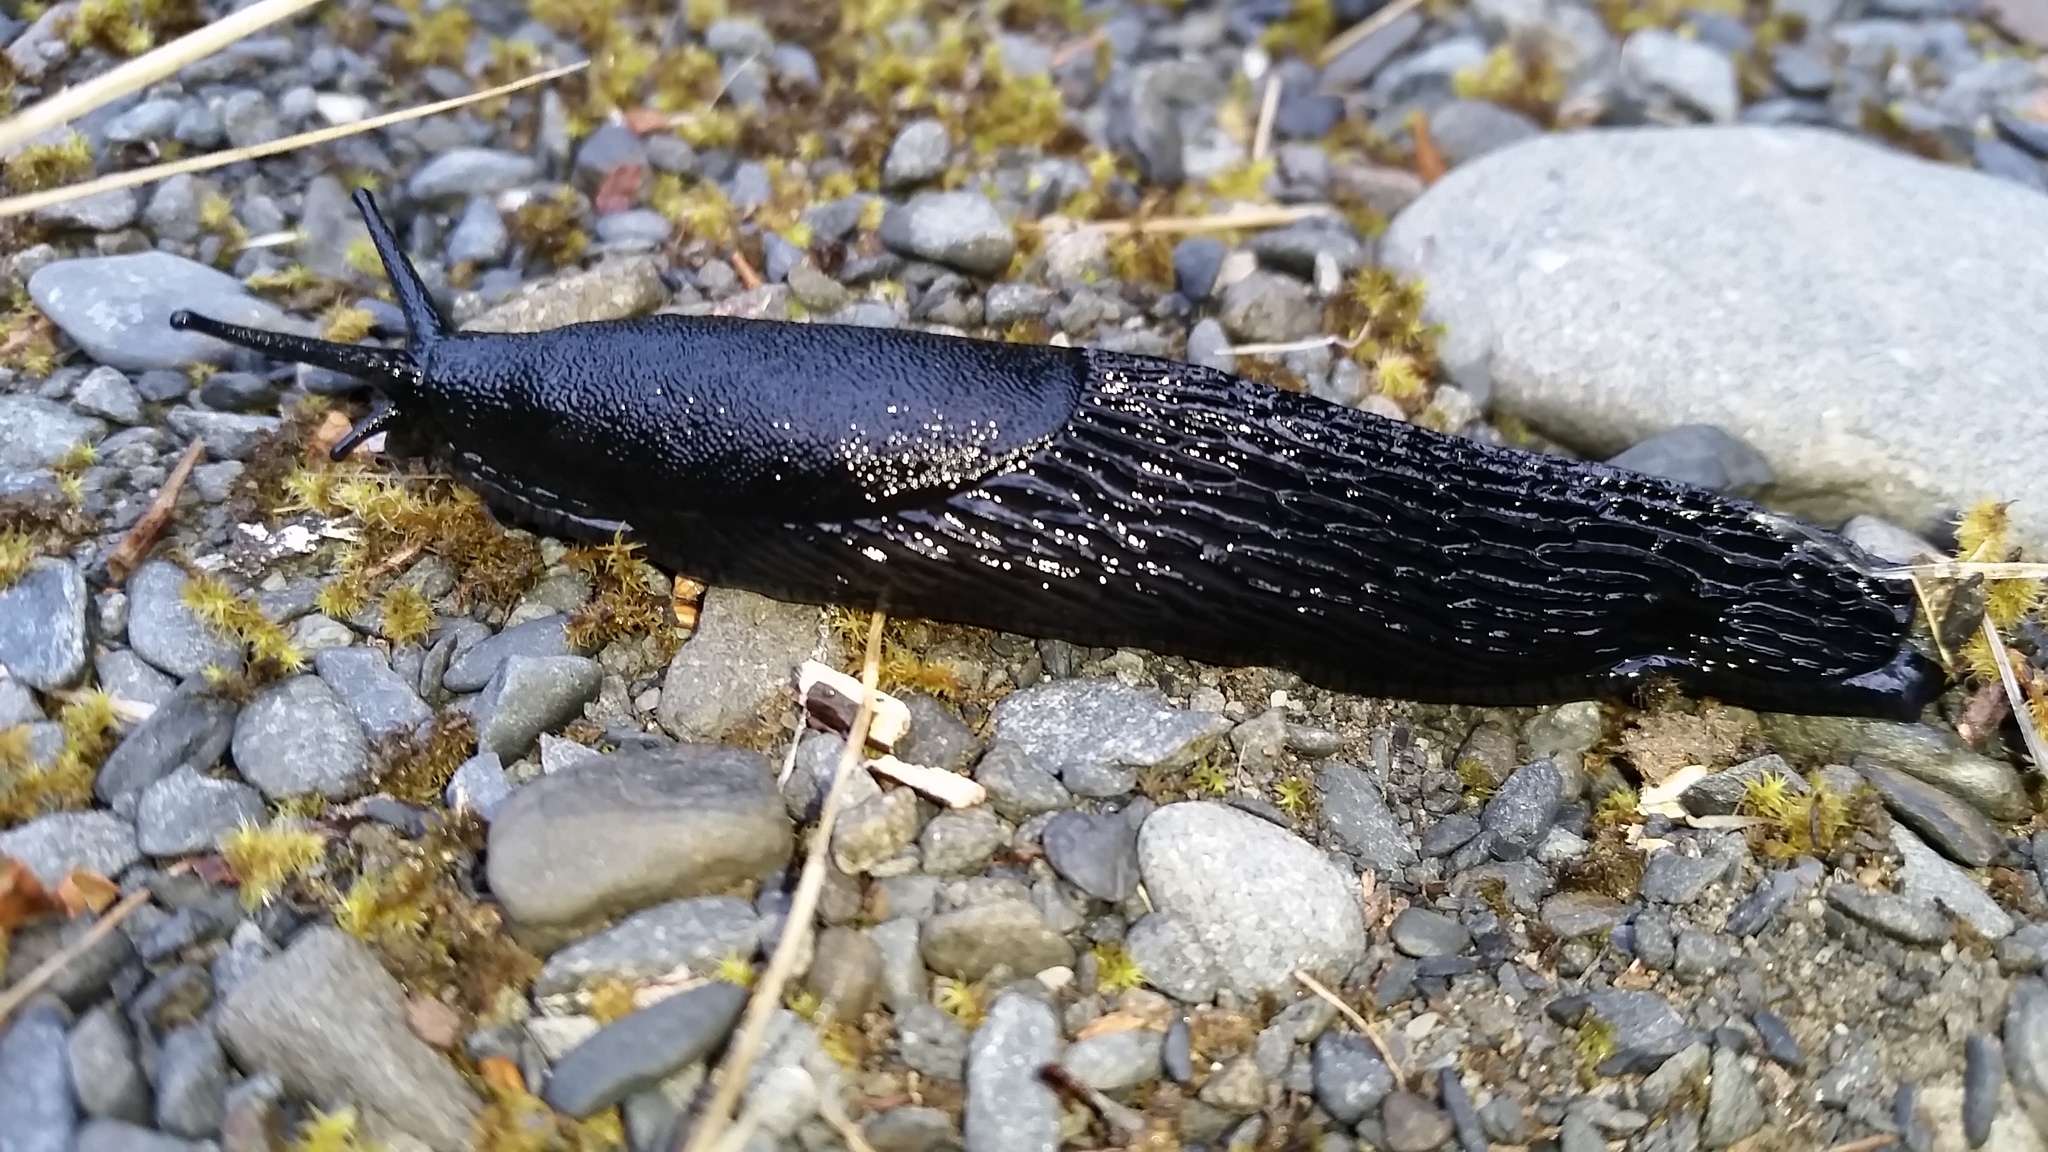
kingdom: Animalia
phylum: Mollusca
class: Gastropoda
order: Stylommatophora
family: Arionidae
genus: Arion
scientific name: Arion
